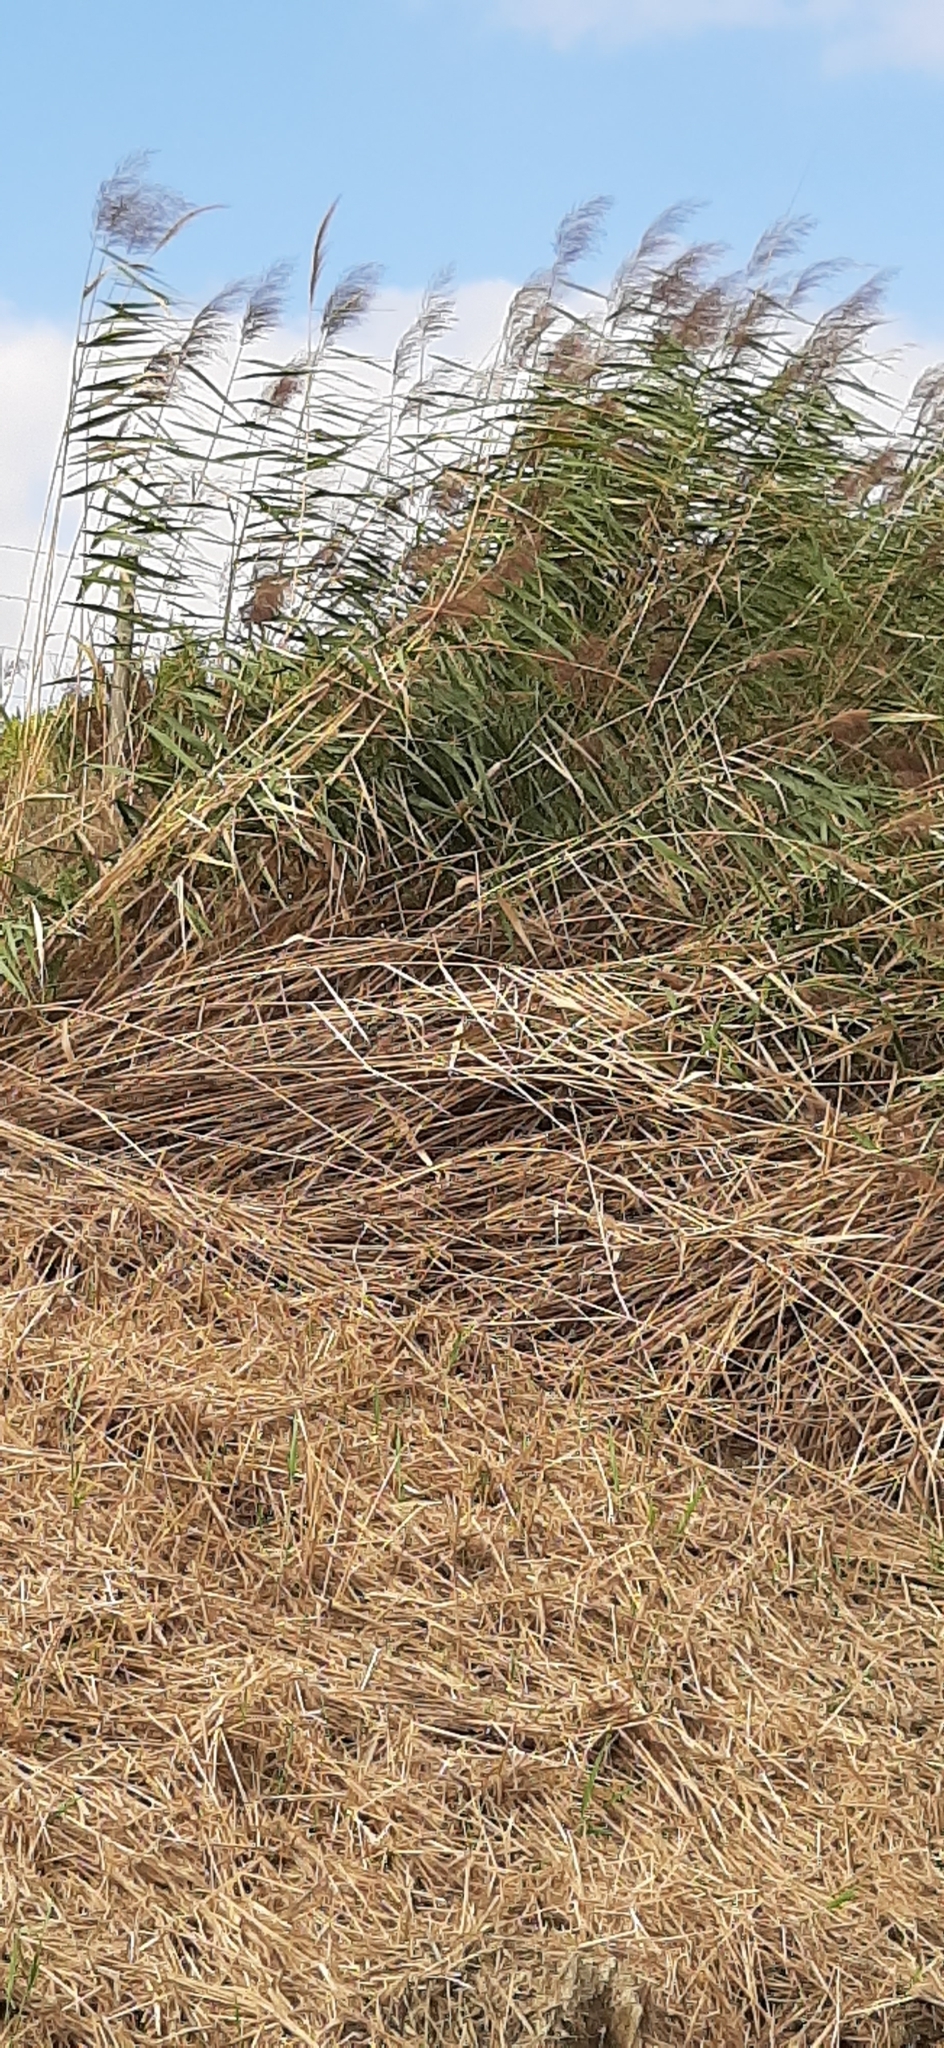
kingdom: Plantae
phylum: Tracheophyta
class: Liliopsida
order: Poales
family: Poaceae
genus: Phragmites
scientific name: Phragmites australis
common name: Common reed
